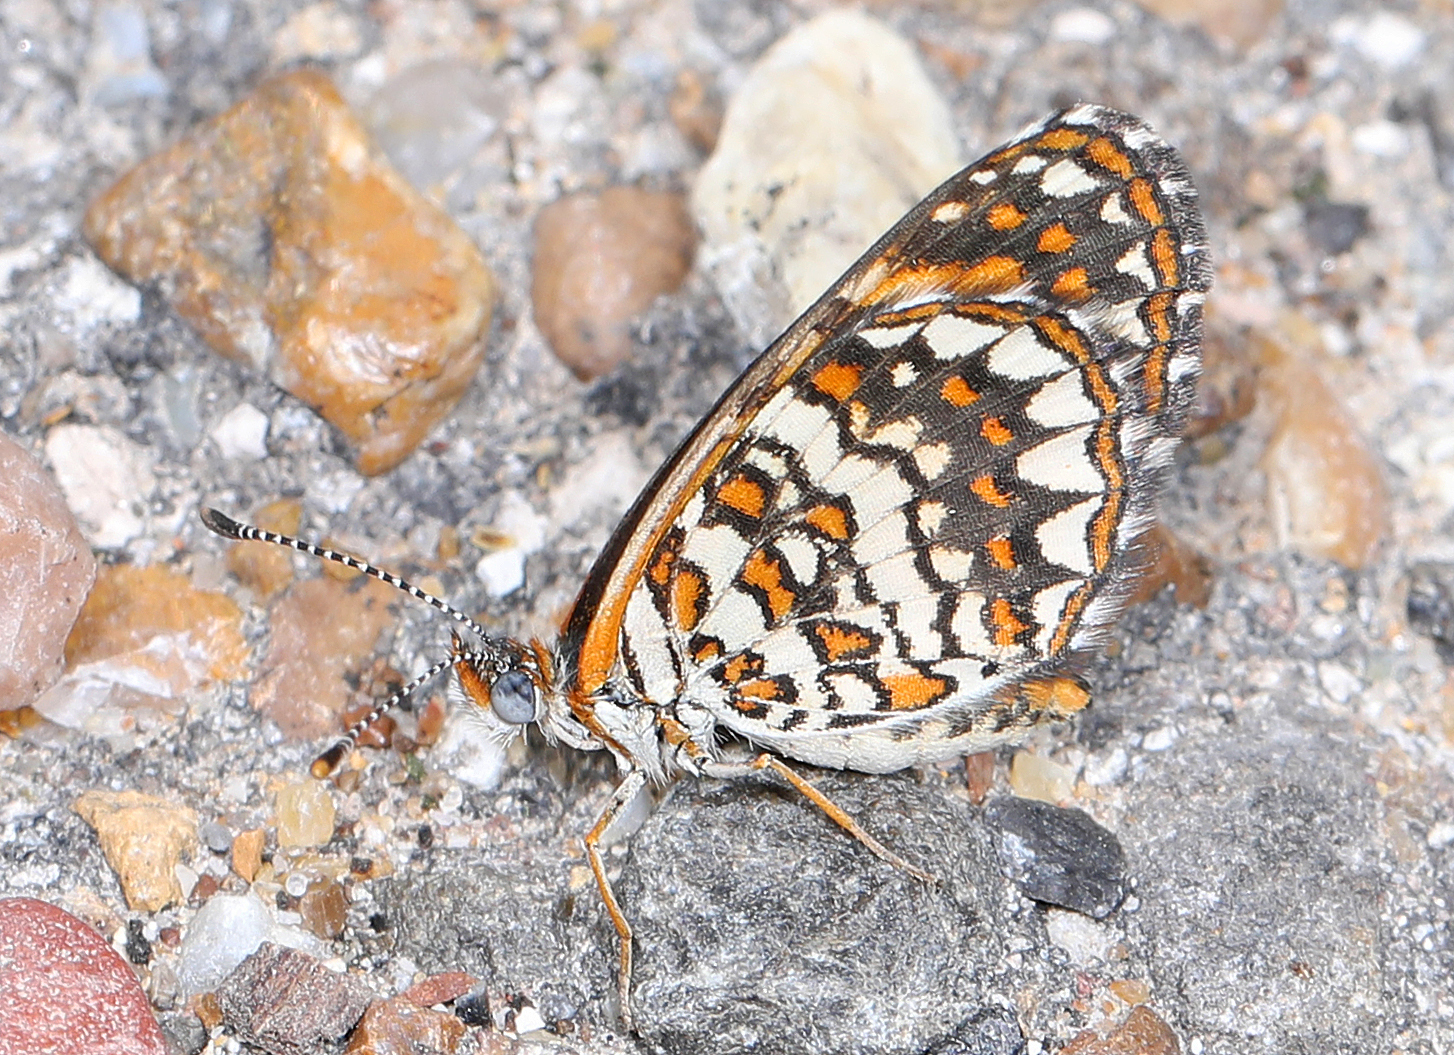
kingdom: Animalia
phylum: Arthropoda
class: Insecta
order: Lepidoptera
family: Nymphalidae
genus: Texola
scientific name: Texola elada
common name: Elada checkerspot
